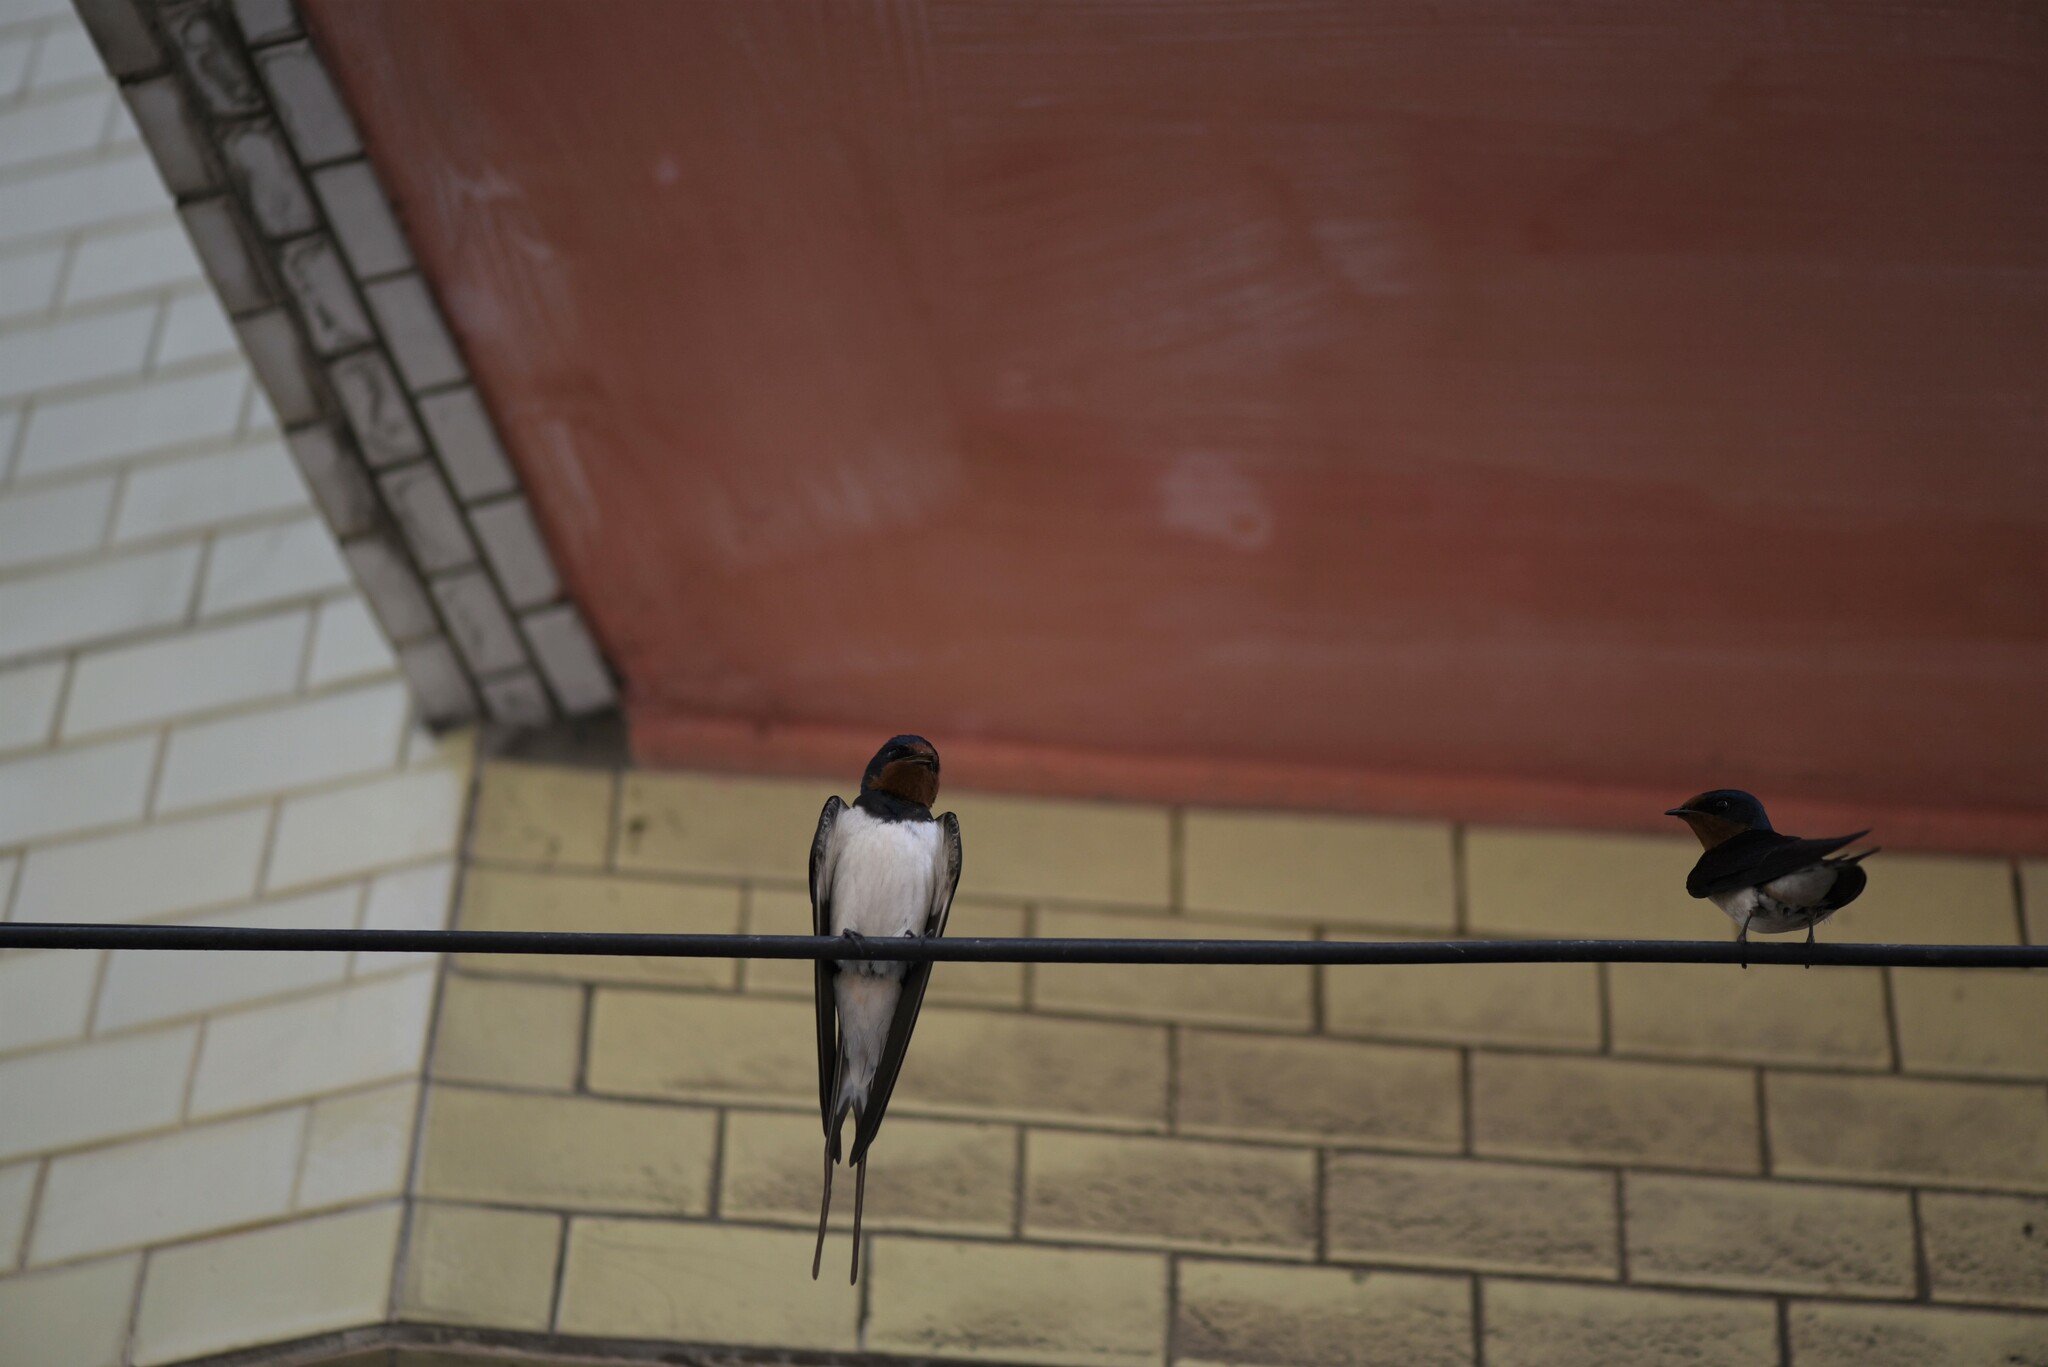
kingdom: Animalia
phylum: Chordata
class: Aves
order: Passeriformes
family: Hirundinidae
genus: Hirundo
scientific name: Hirundo rustica
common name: Barn swallow
